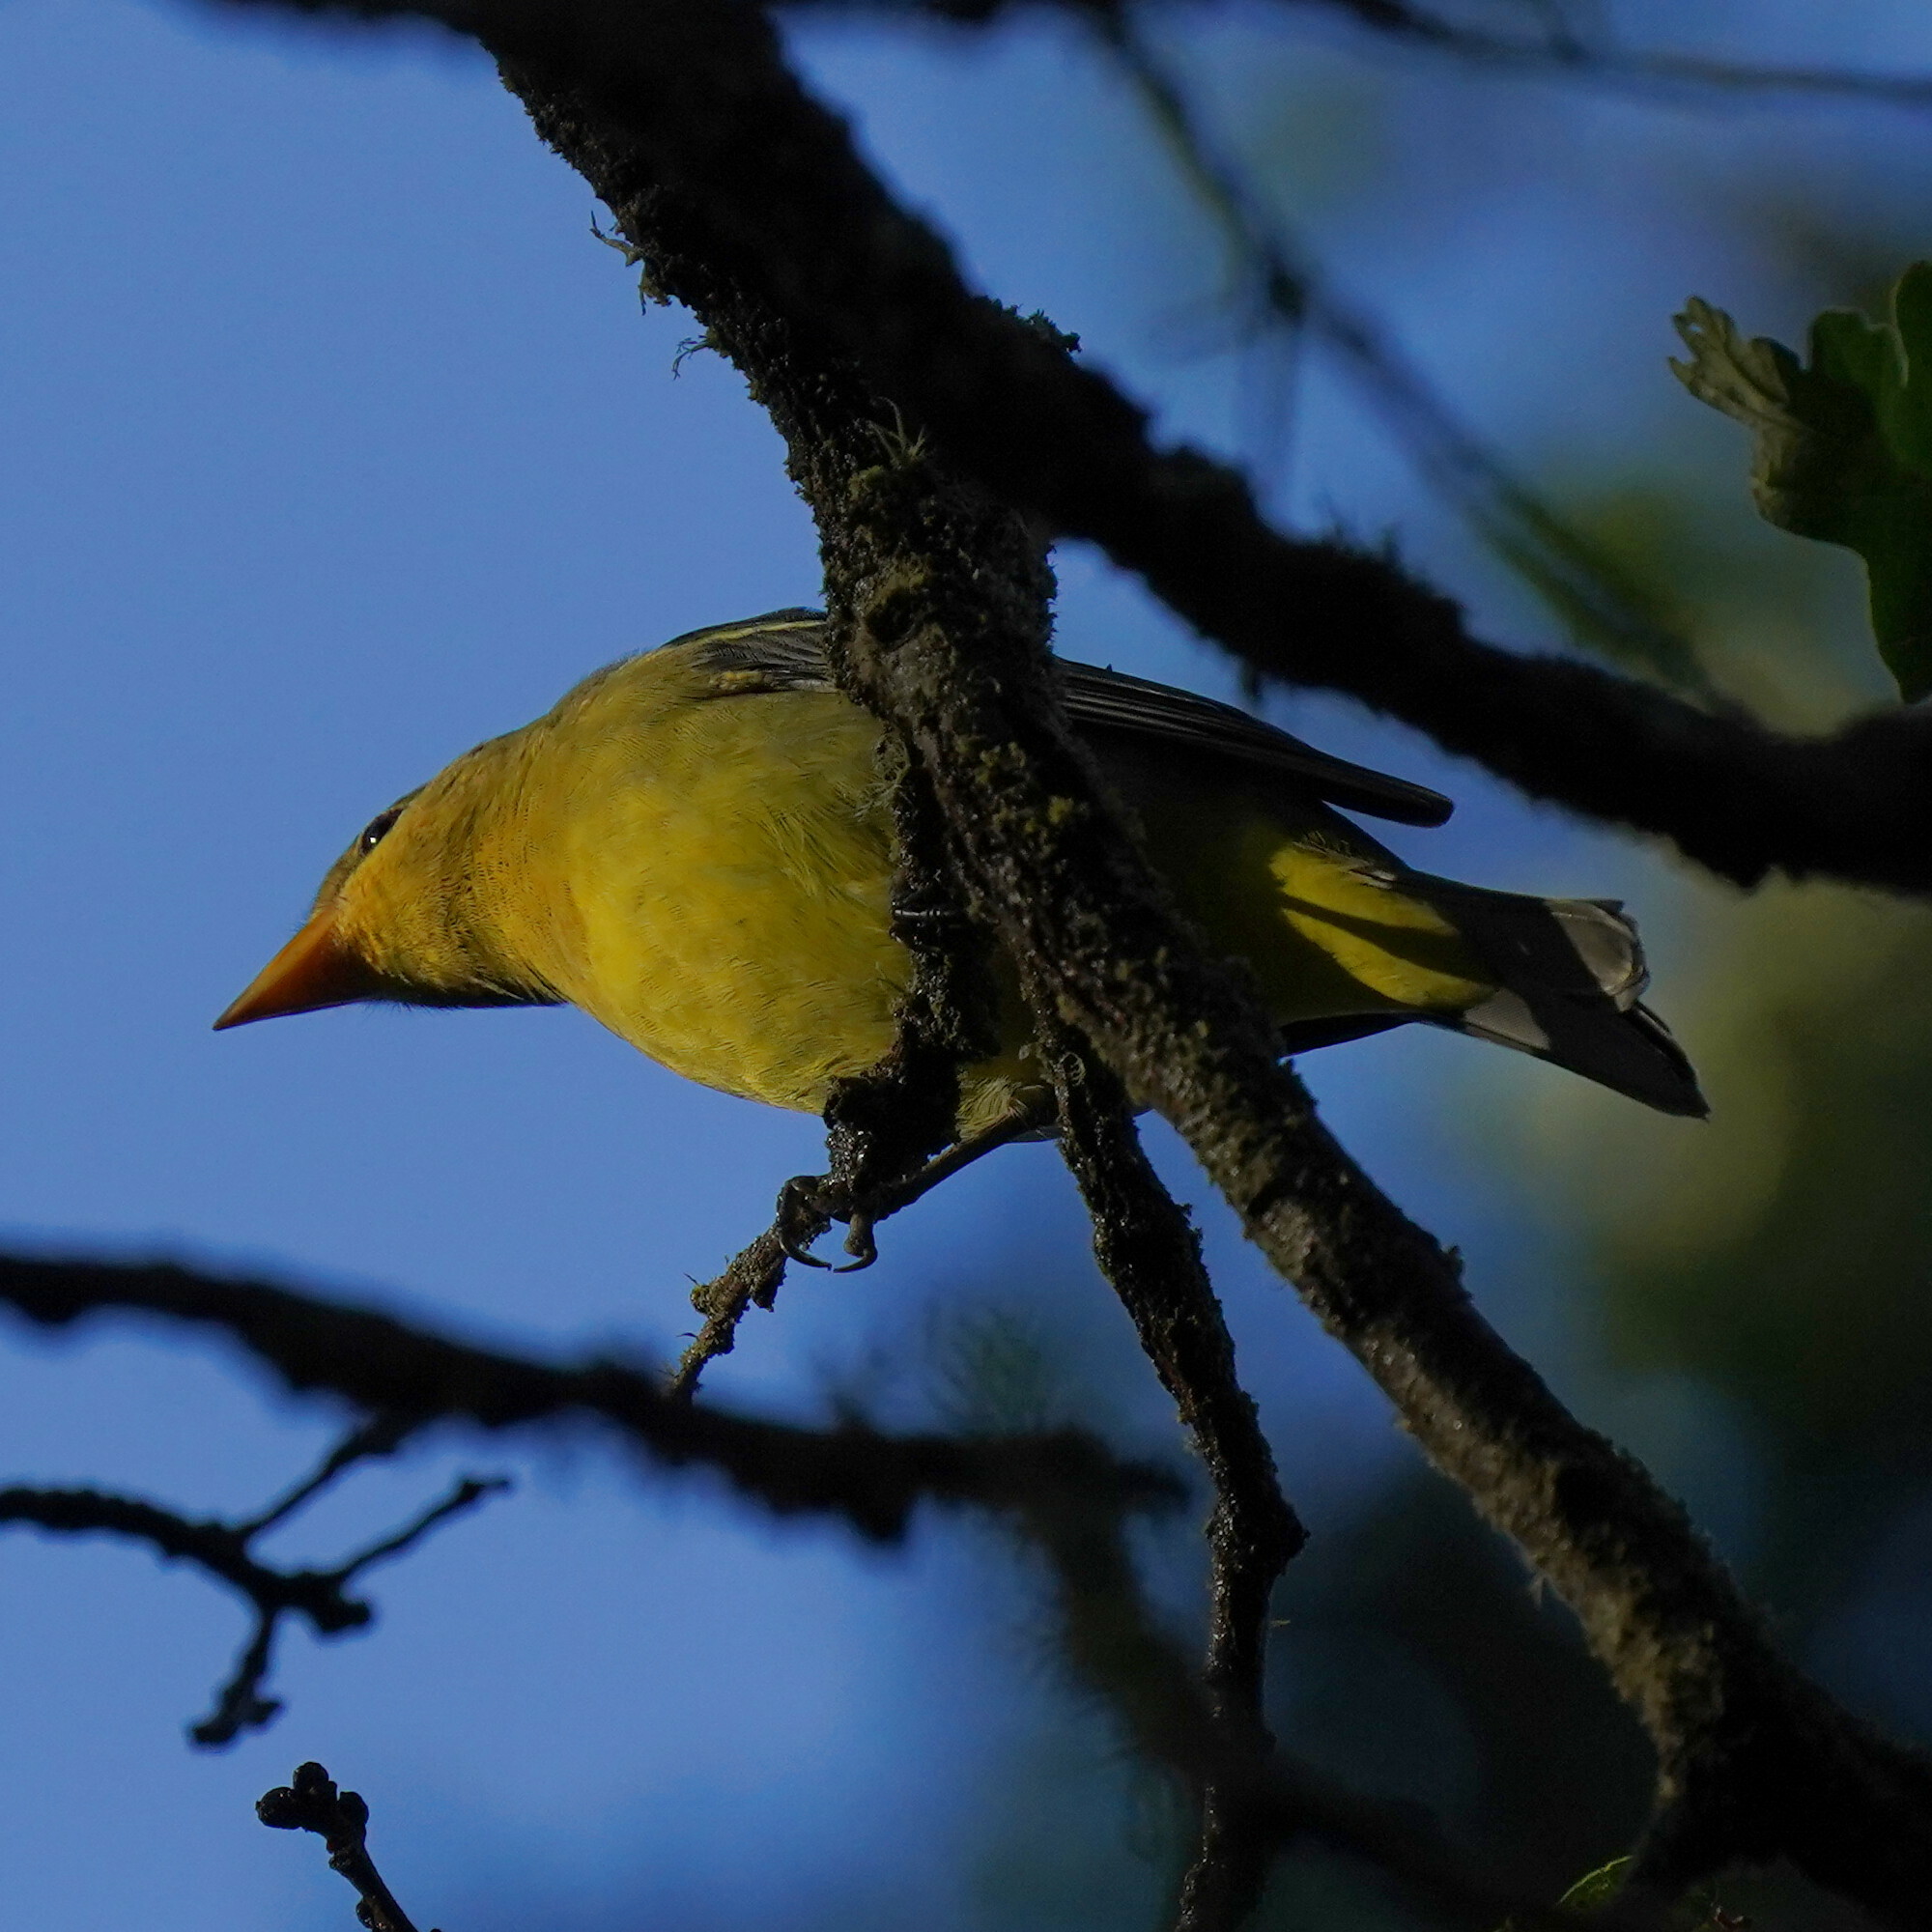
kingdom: Animalia
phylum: Chordata
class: Aves
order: Passeriformes
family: Cardinalidae
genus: Piranga
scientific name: Piranga ludoviciana
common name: Western tanager
